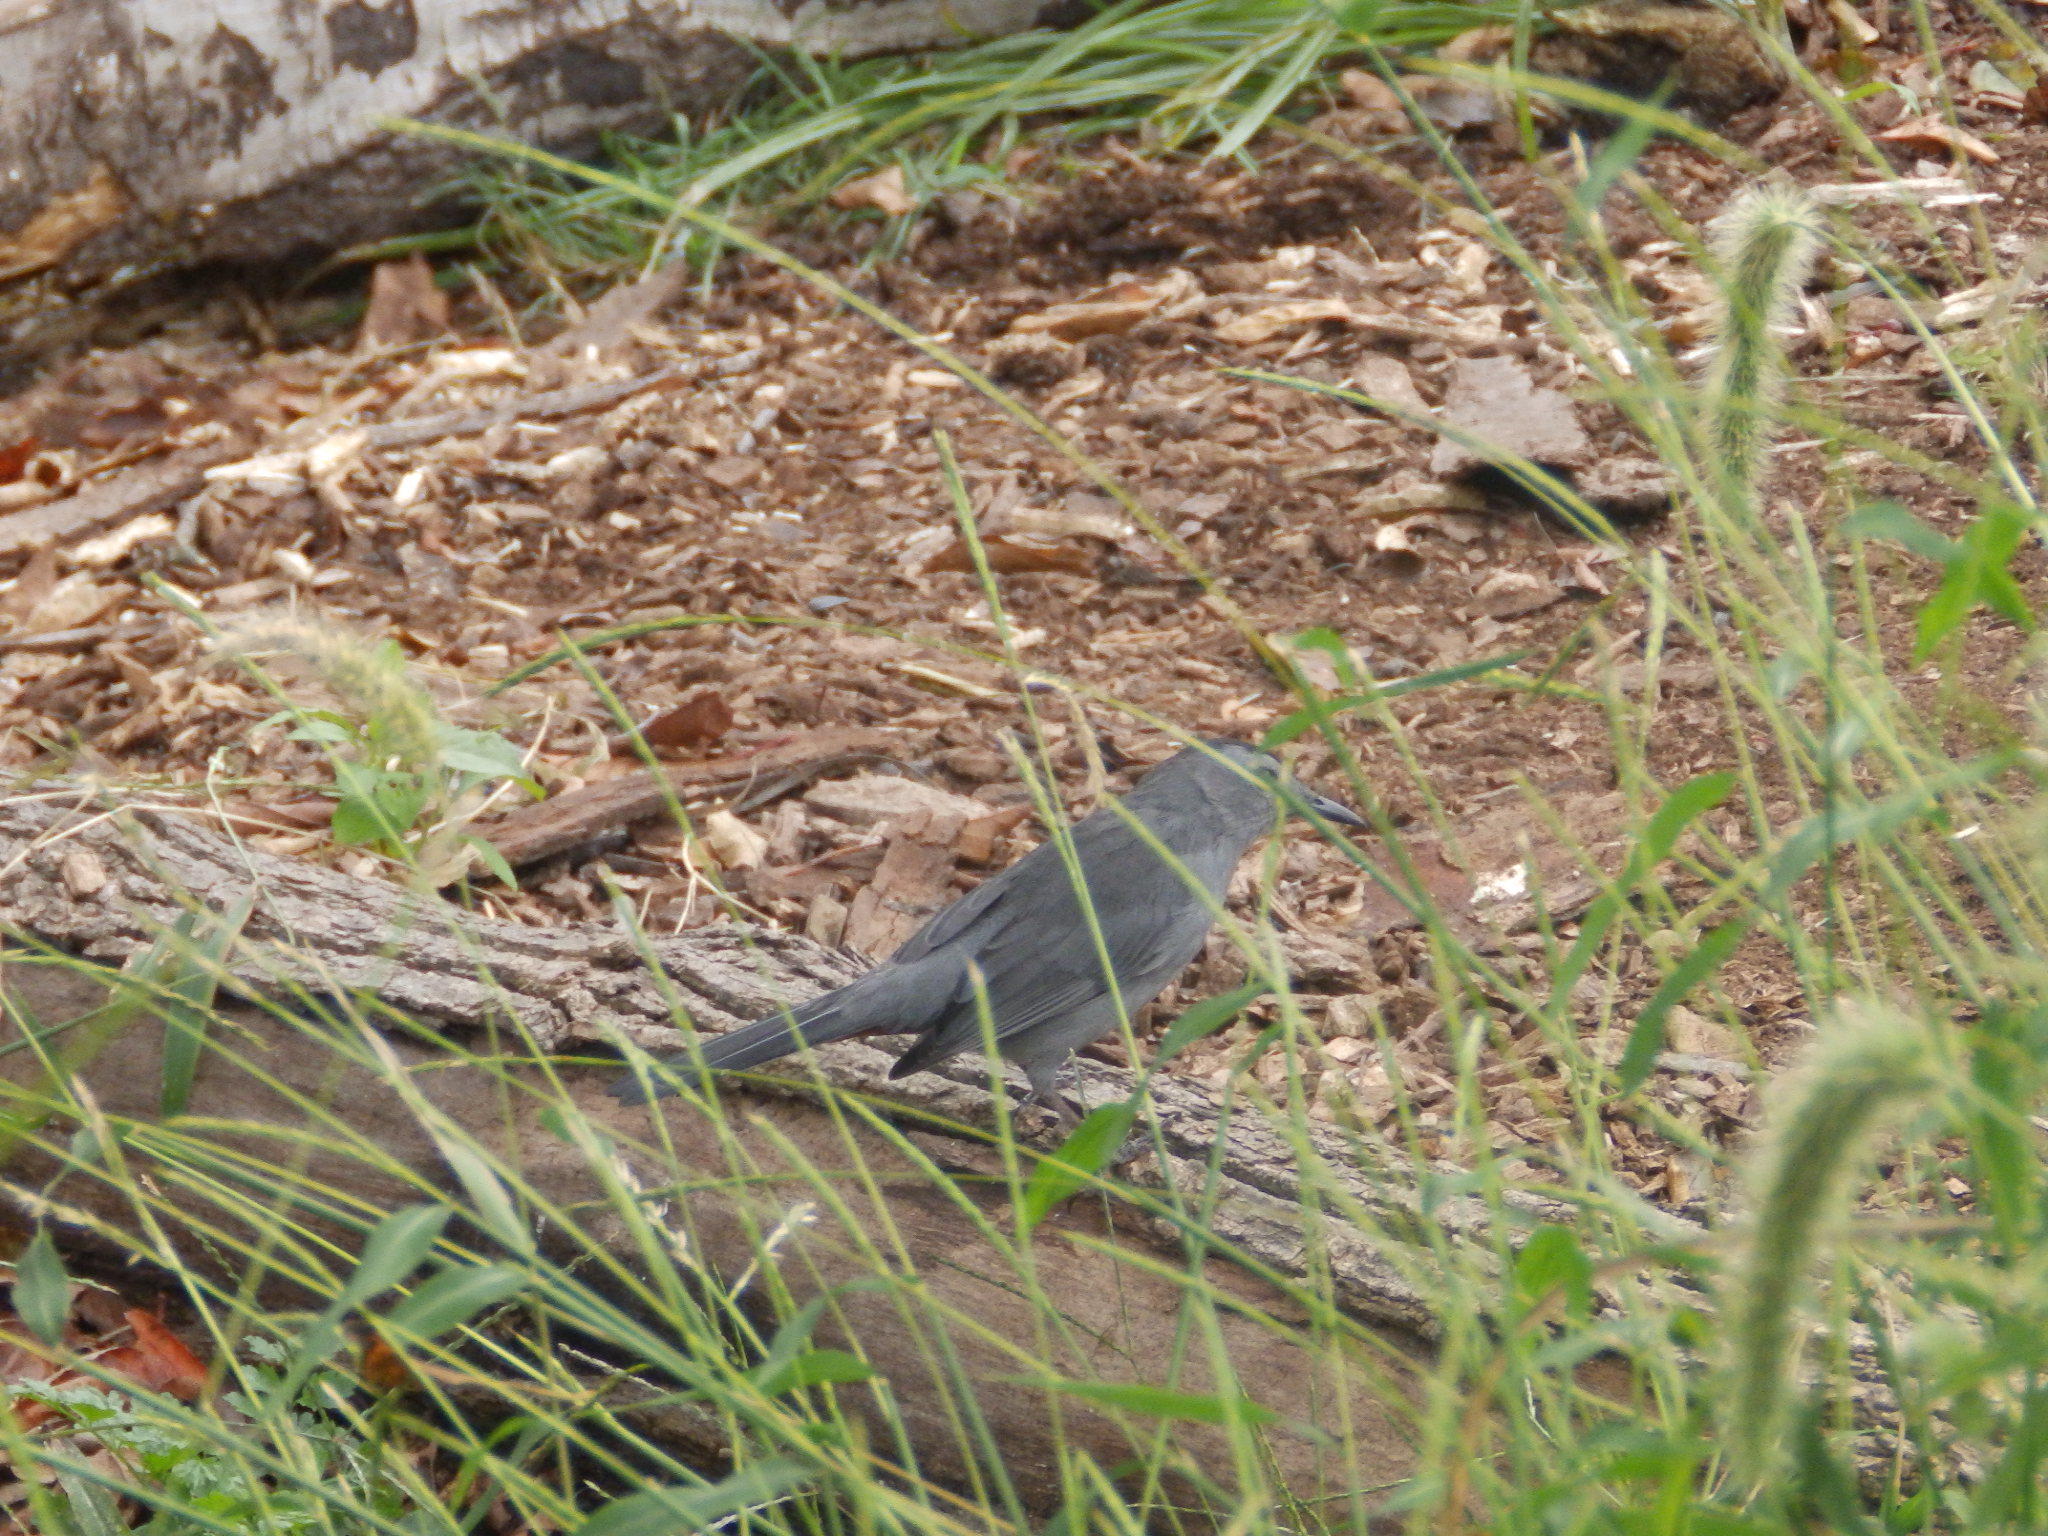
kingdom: Animalia
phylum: Chordata
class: Aves
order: Passeriformes
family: Mimidae
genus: Dumetella
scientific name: Dumetella carolinensis
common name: Gray catbird
